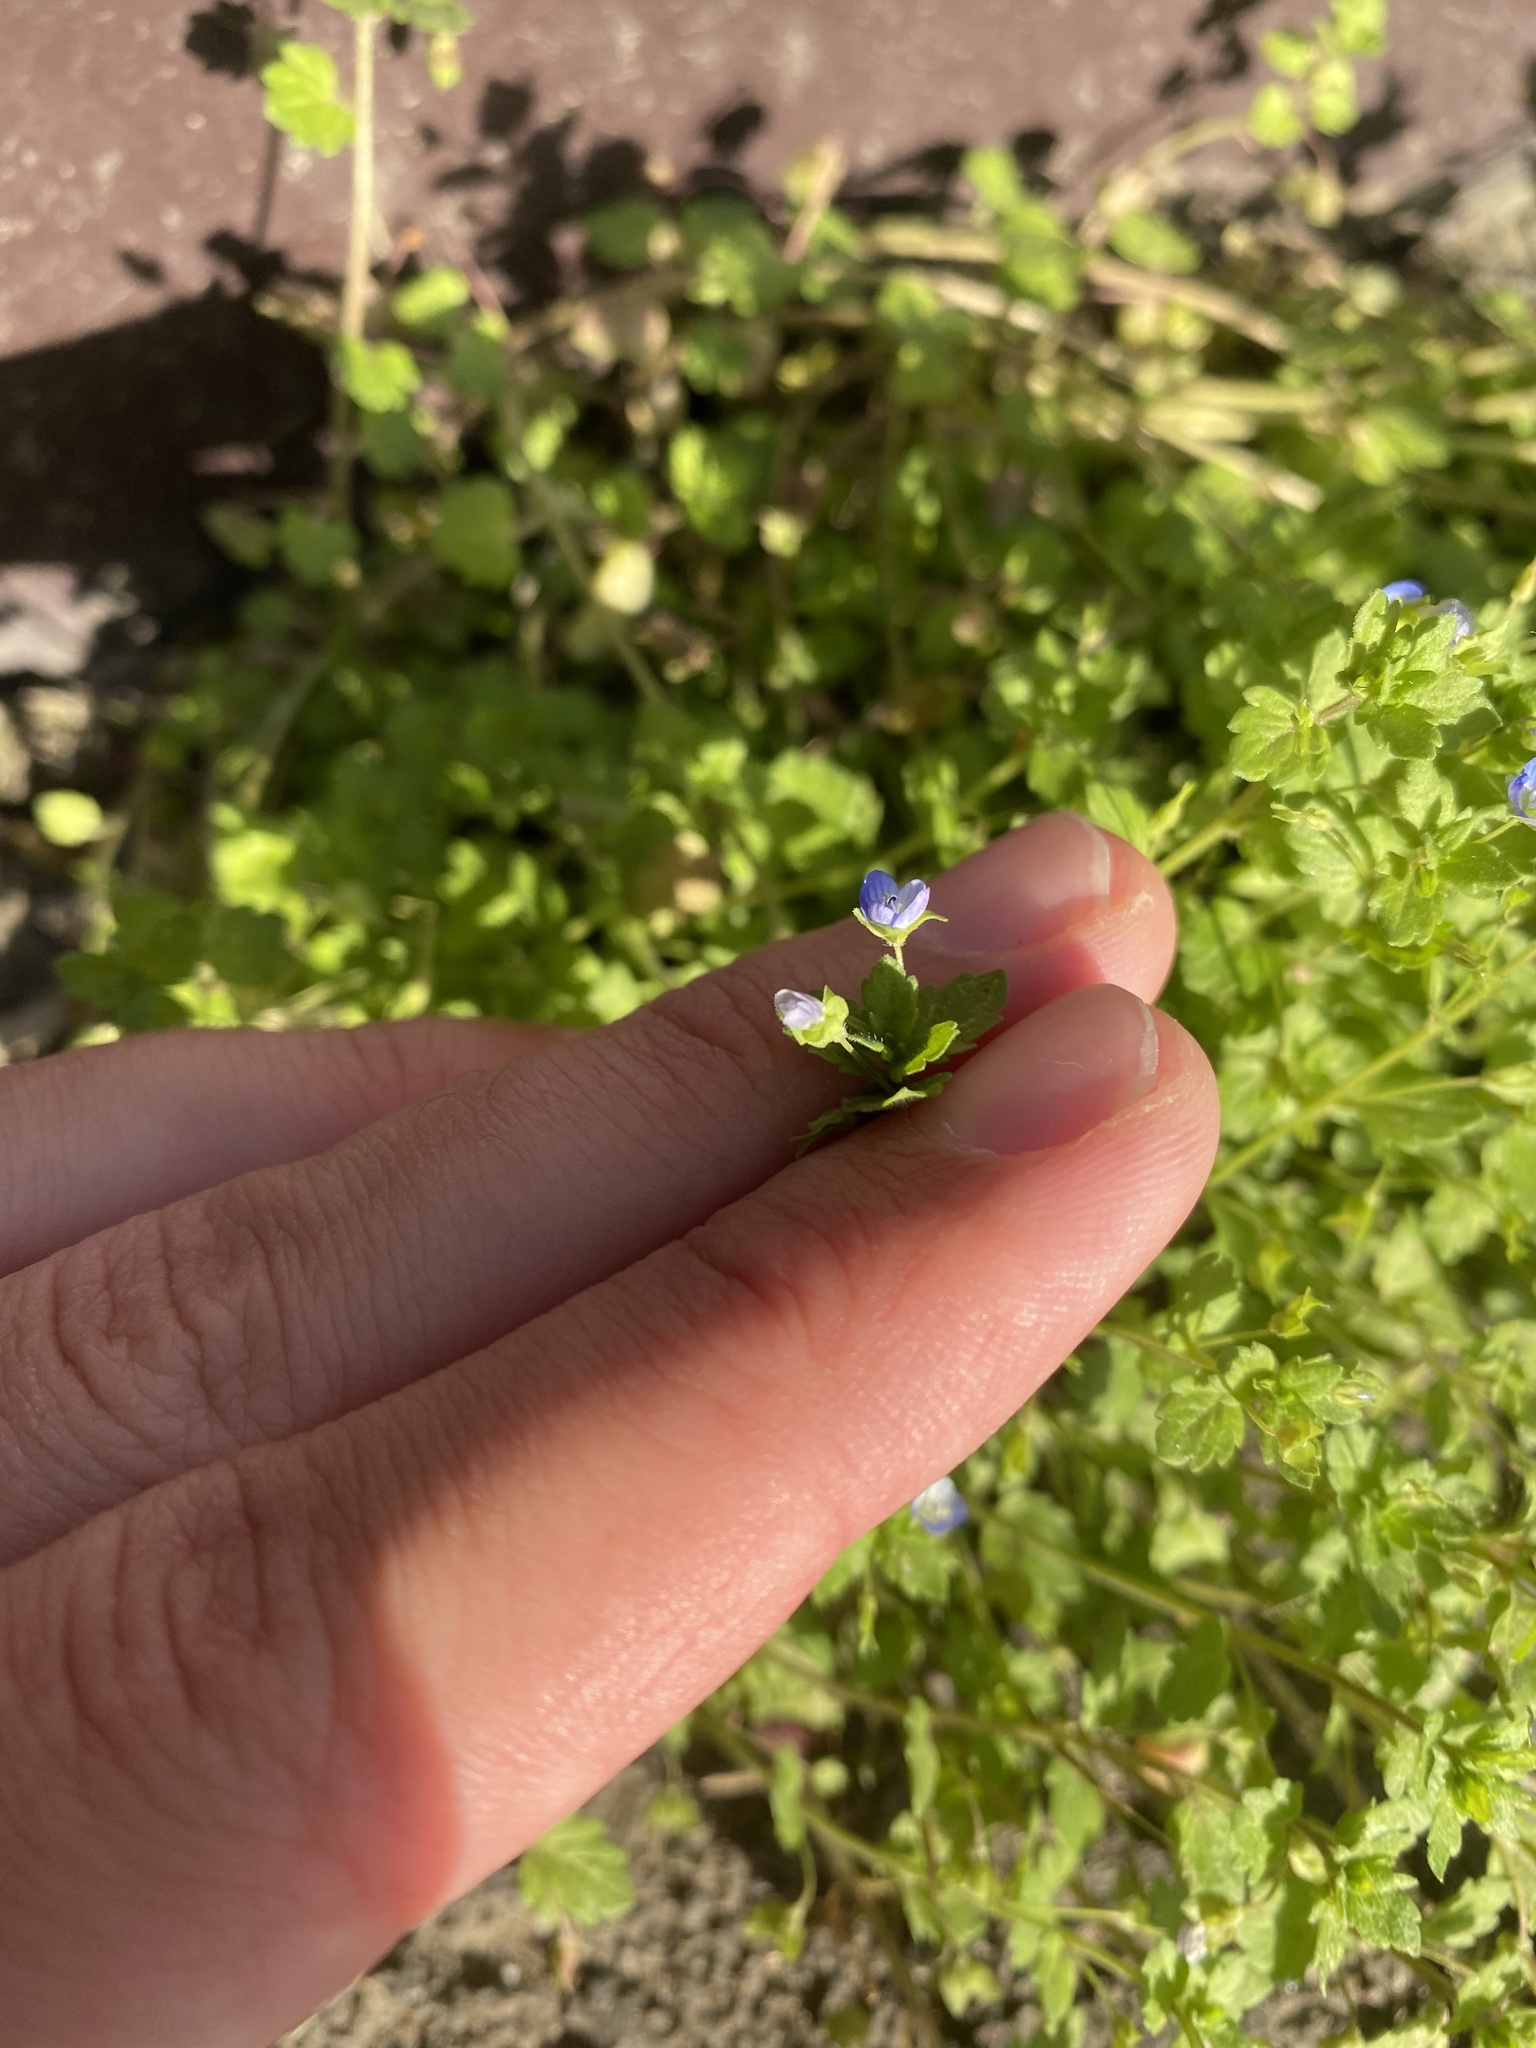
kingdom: Plantae
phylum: Tracheophyta
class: Magnoliopsida
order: Lamiales
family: Plantaginaceae
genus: Veronica
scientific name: Veronica polita
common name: Grey field-speedwell
